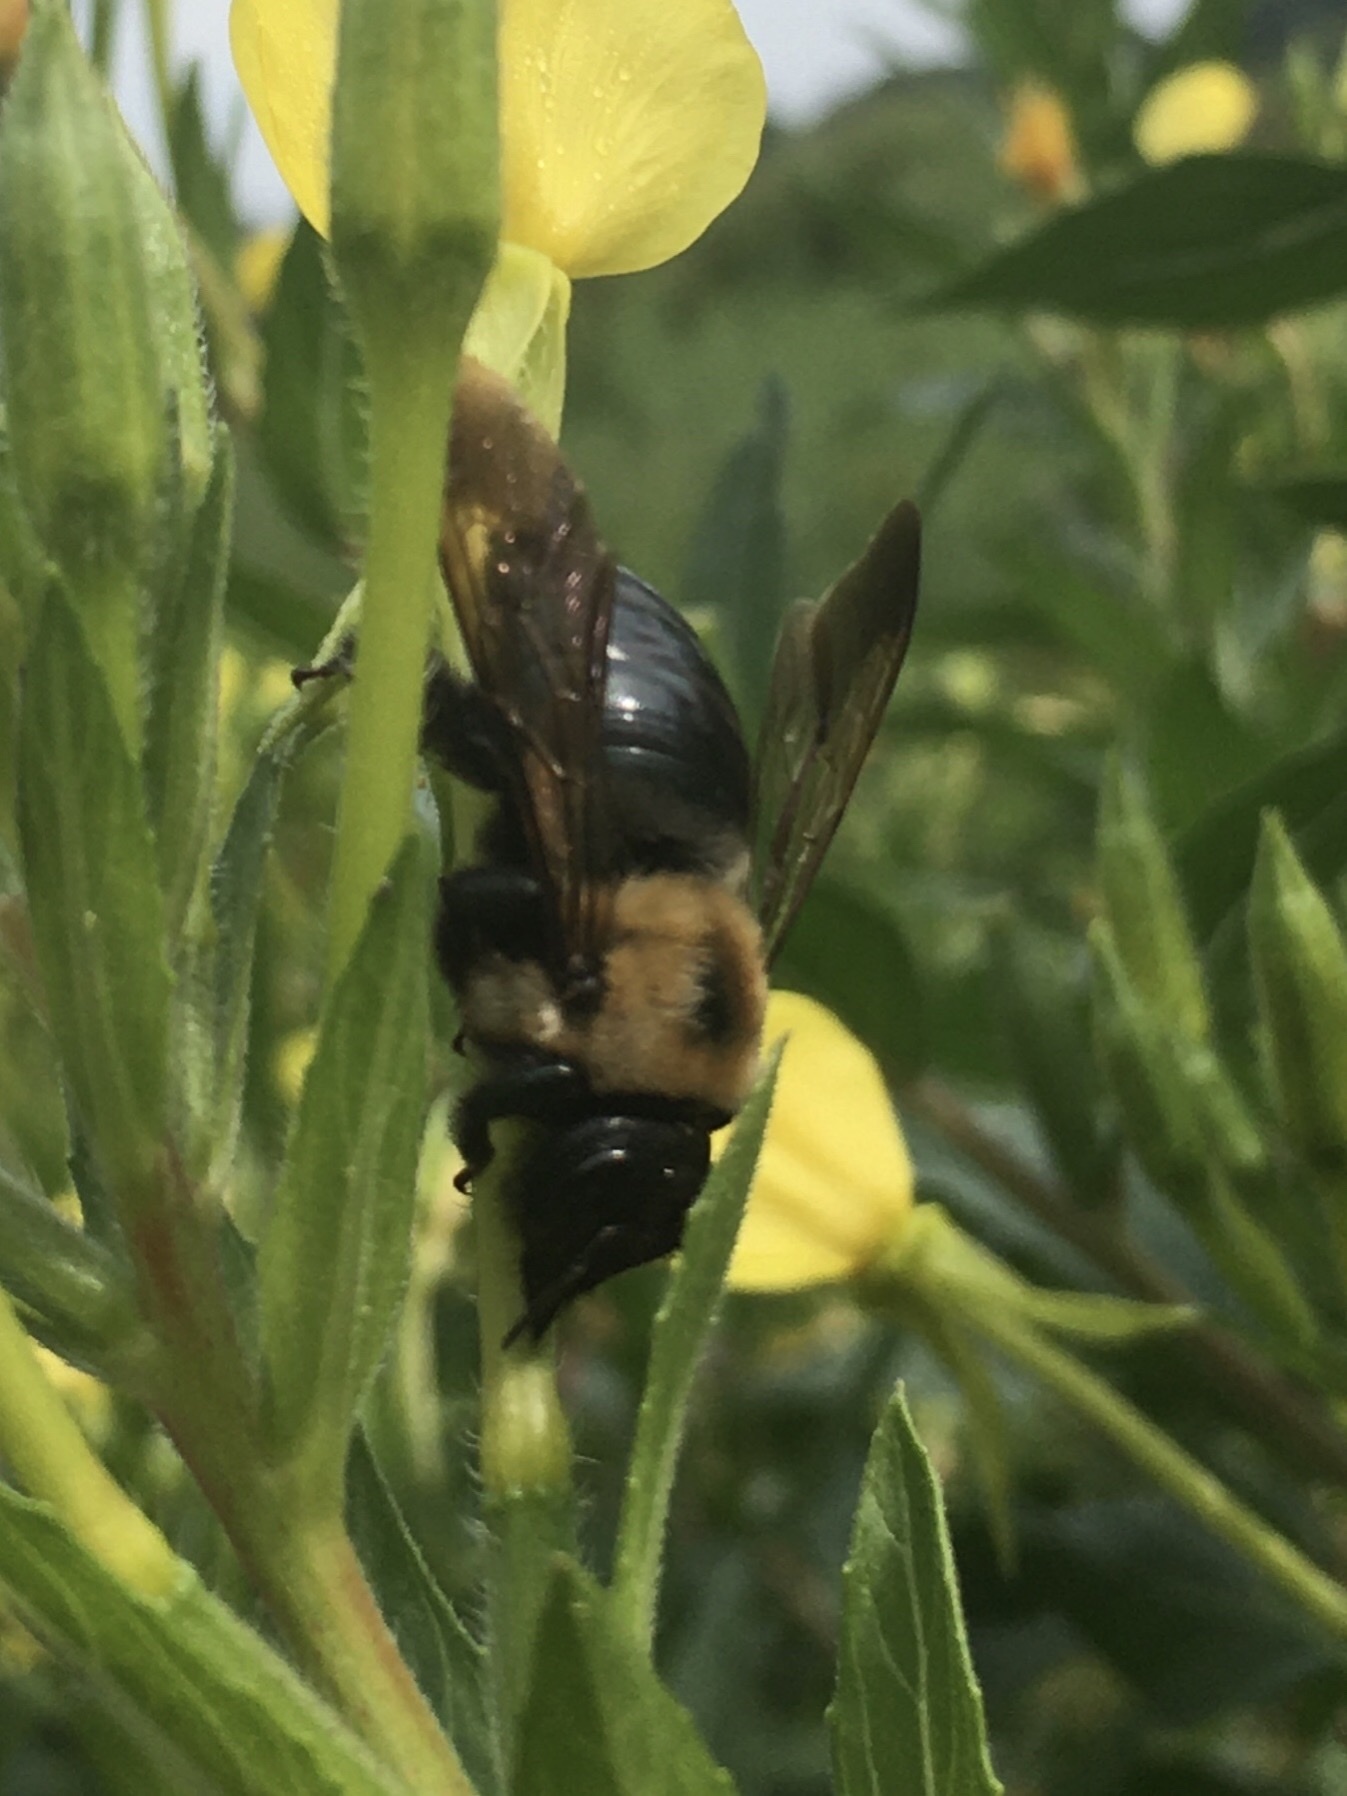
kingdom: Animalia
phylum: Arthropoda
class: Insecta
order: Hymenoptera
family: Apidae
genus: Xylocopa
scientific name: Xylocopa virginica
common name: Carpenter bee
